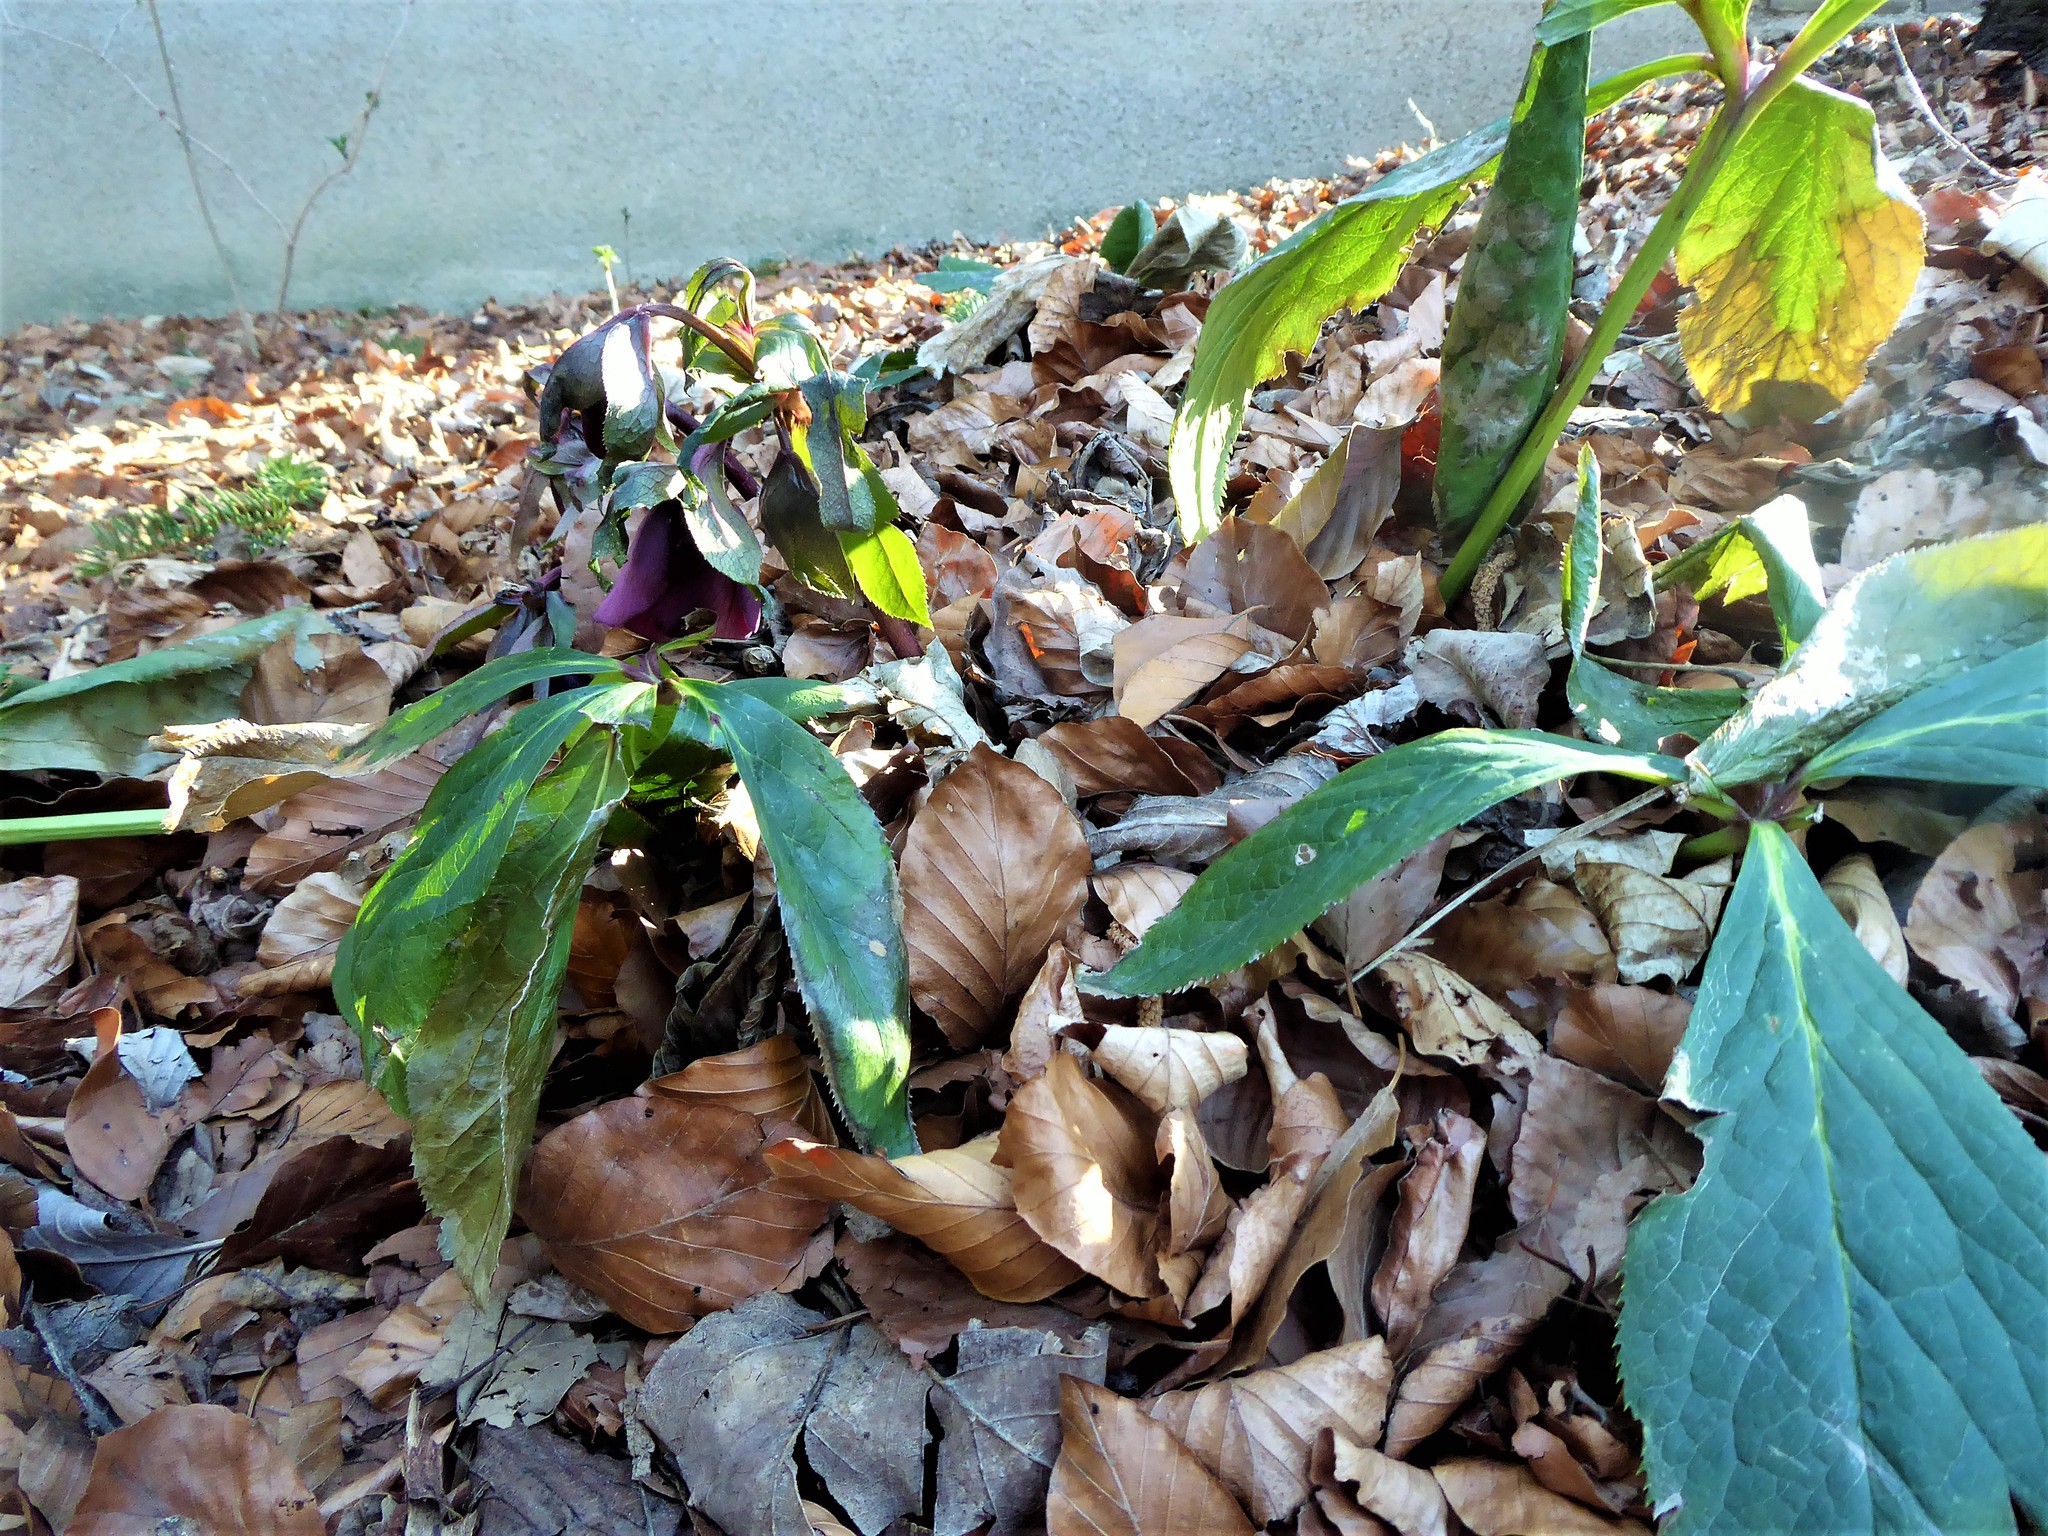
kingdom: Plantae
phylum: Tracheophyta
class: Magnoliopsida
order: Ranunculales
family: Ranunculaceae
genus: Helleborus
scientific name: Helleborus hybridus
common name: Hybrid lenten-rose
